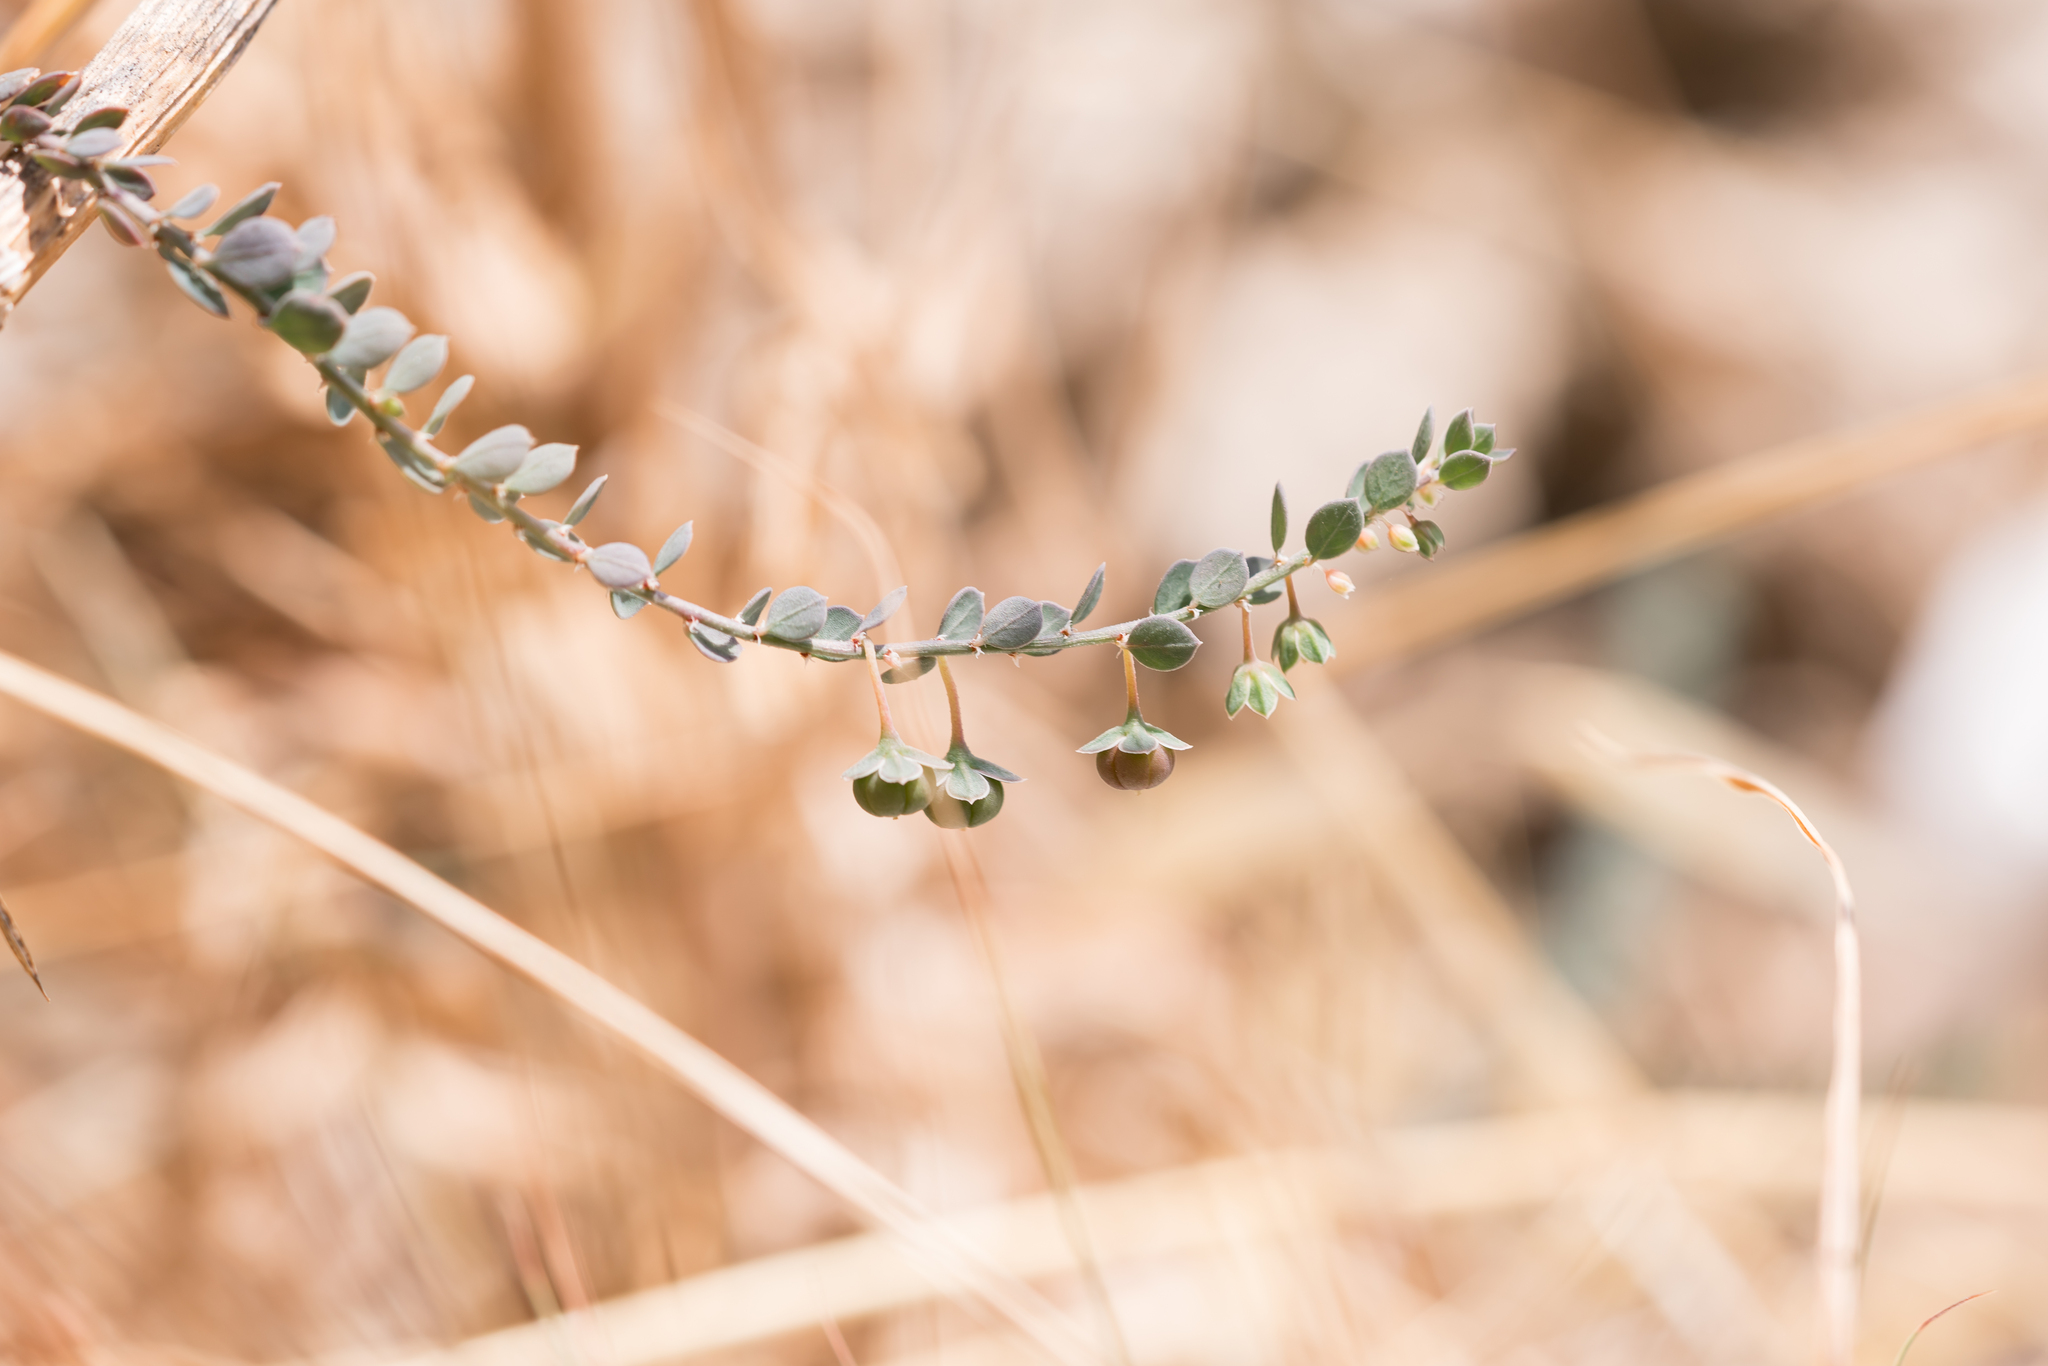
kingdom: Plantae
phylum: Tracheophyta
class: Magnoliopsida
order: Malpighiales
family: Phyllanthaceae
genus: Andrachne
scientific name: Andrachne telephioides
